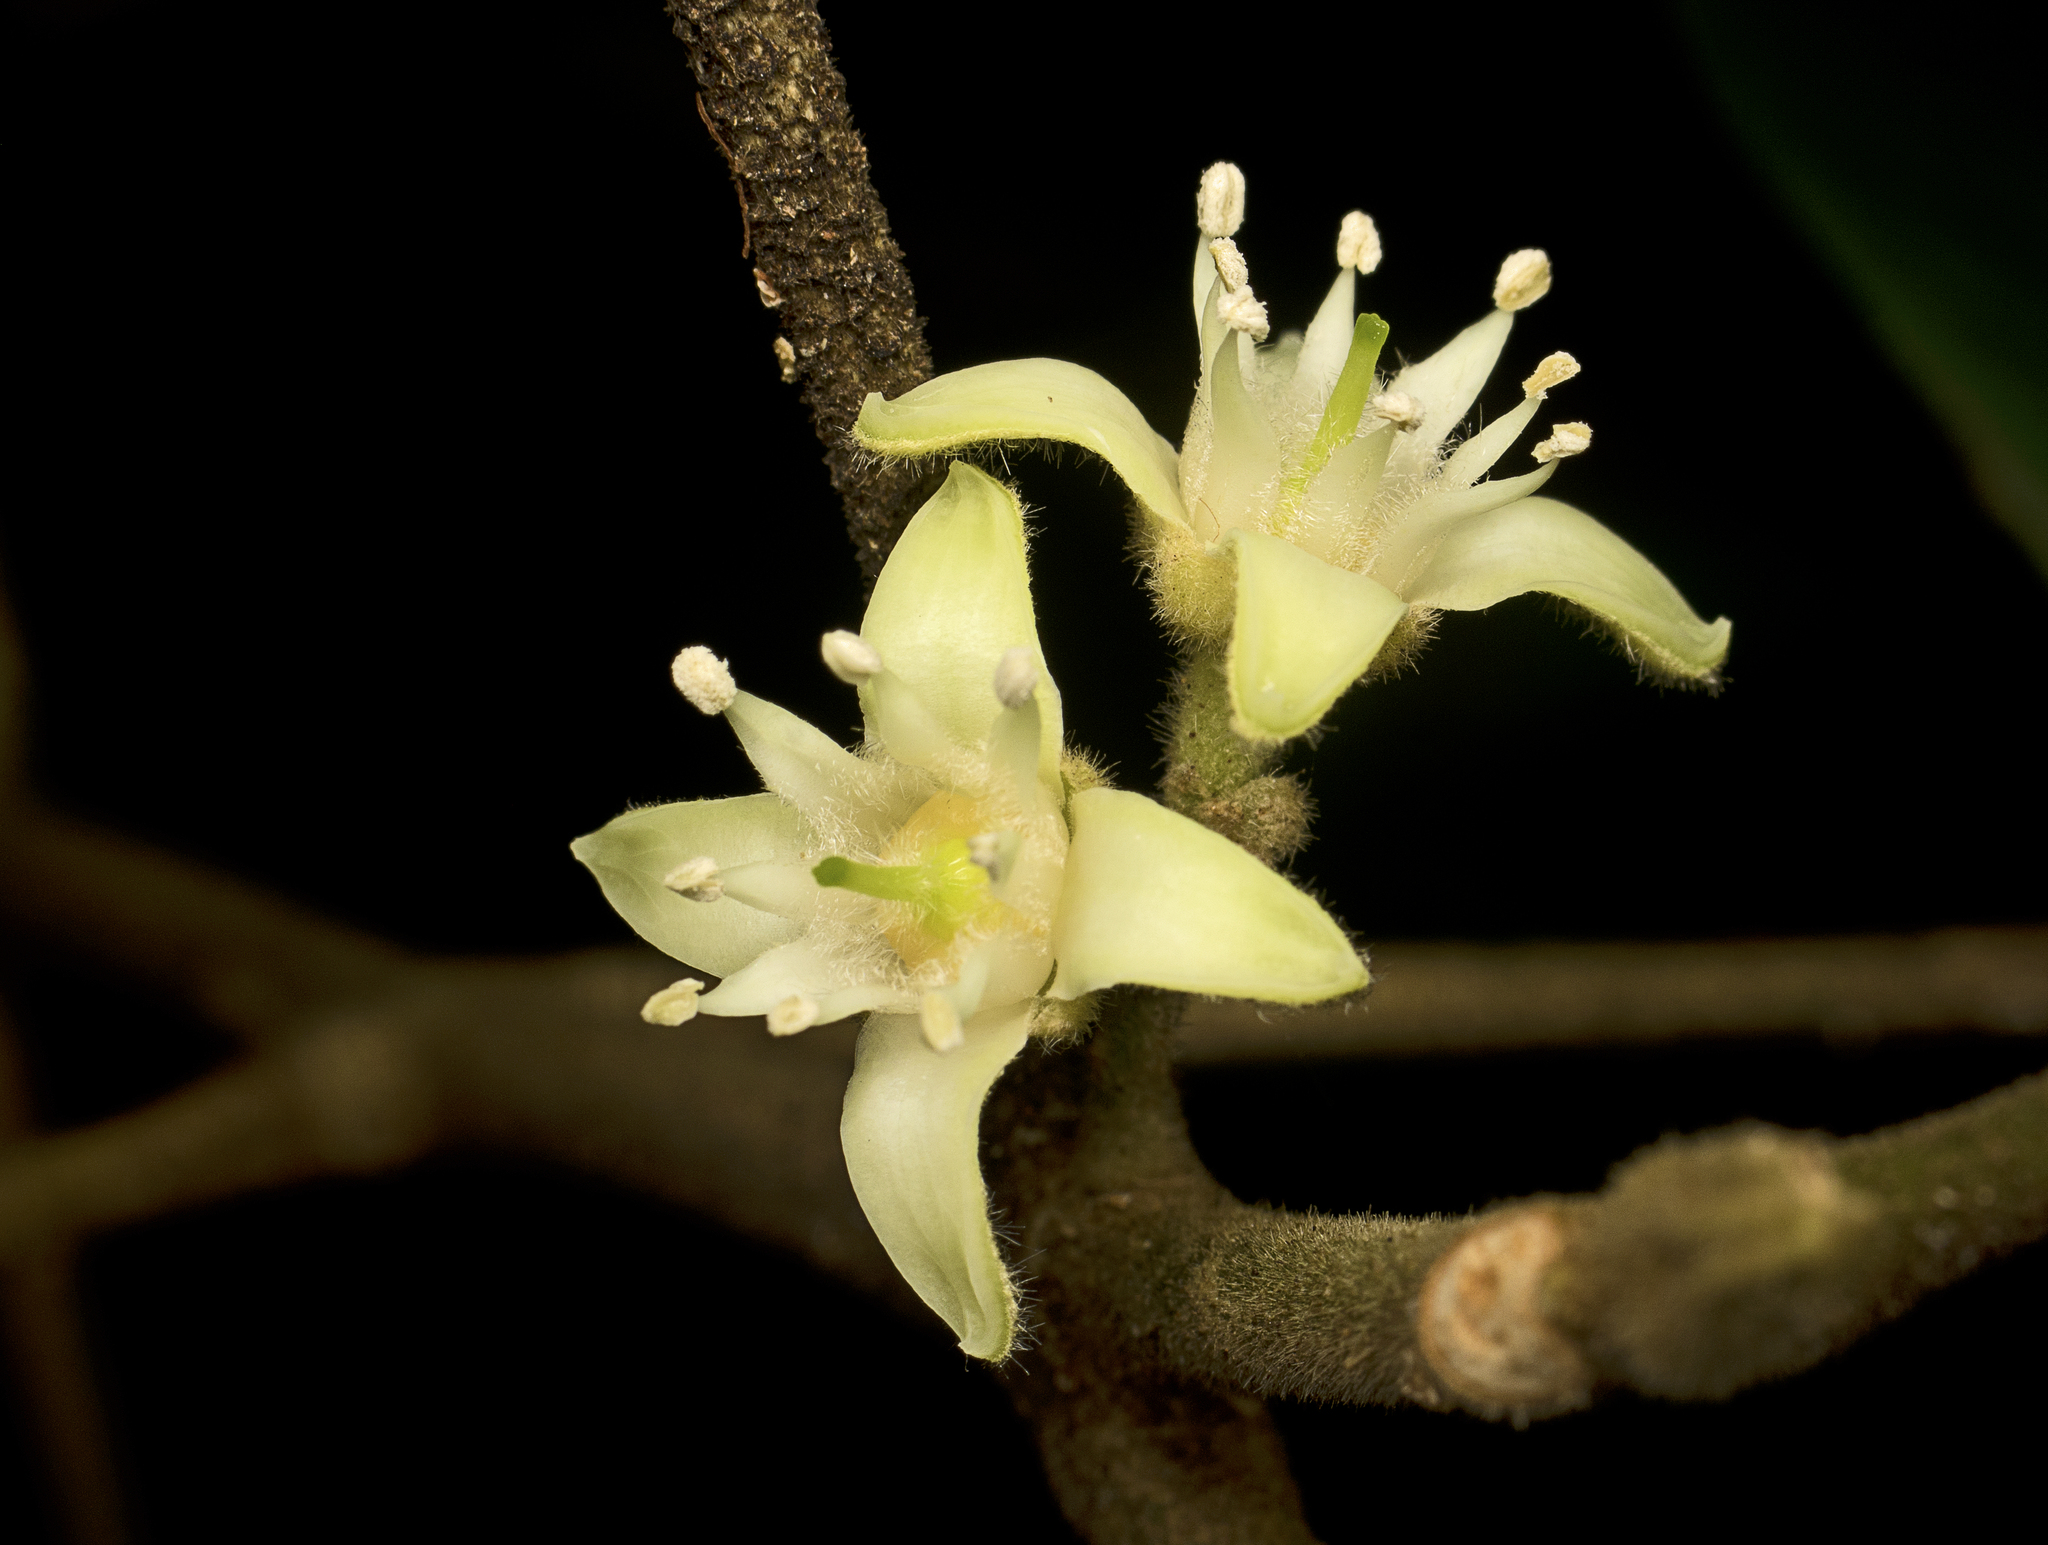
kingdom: Plantae
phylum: Tracheophyta
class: Magnoliopsida
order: Sapindales
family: Rutaceae
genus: Acronychia
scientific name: Acronychia pauciflora
